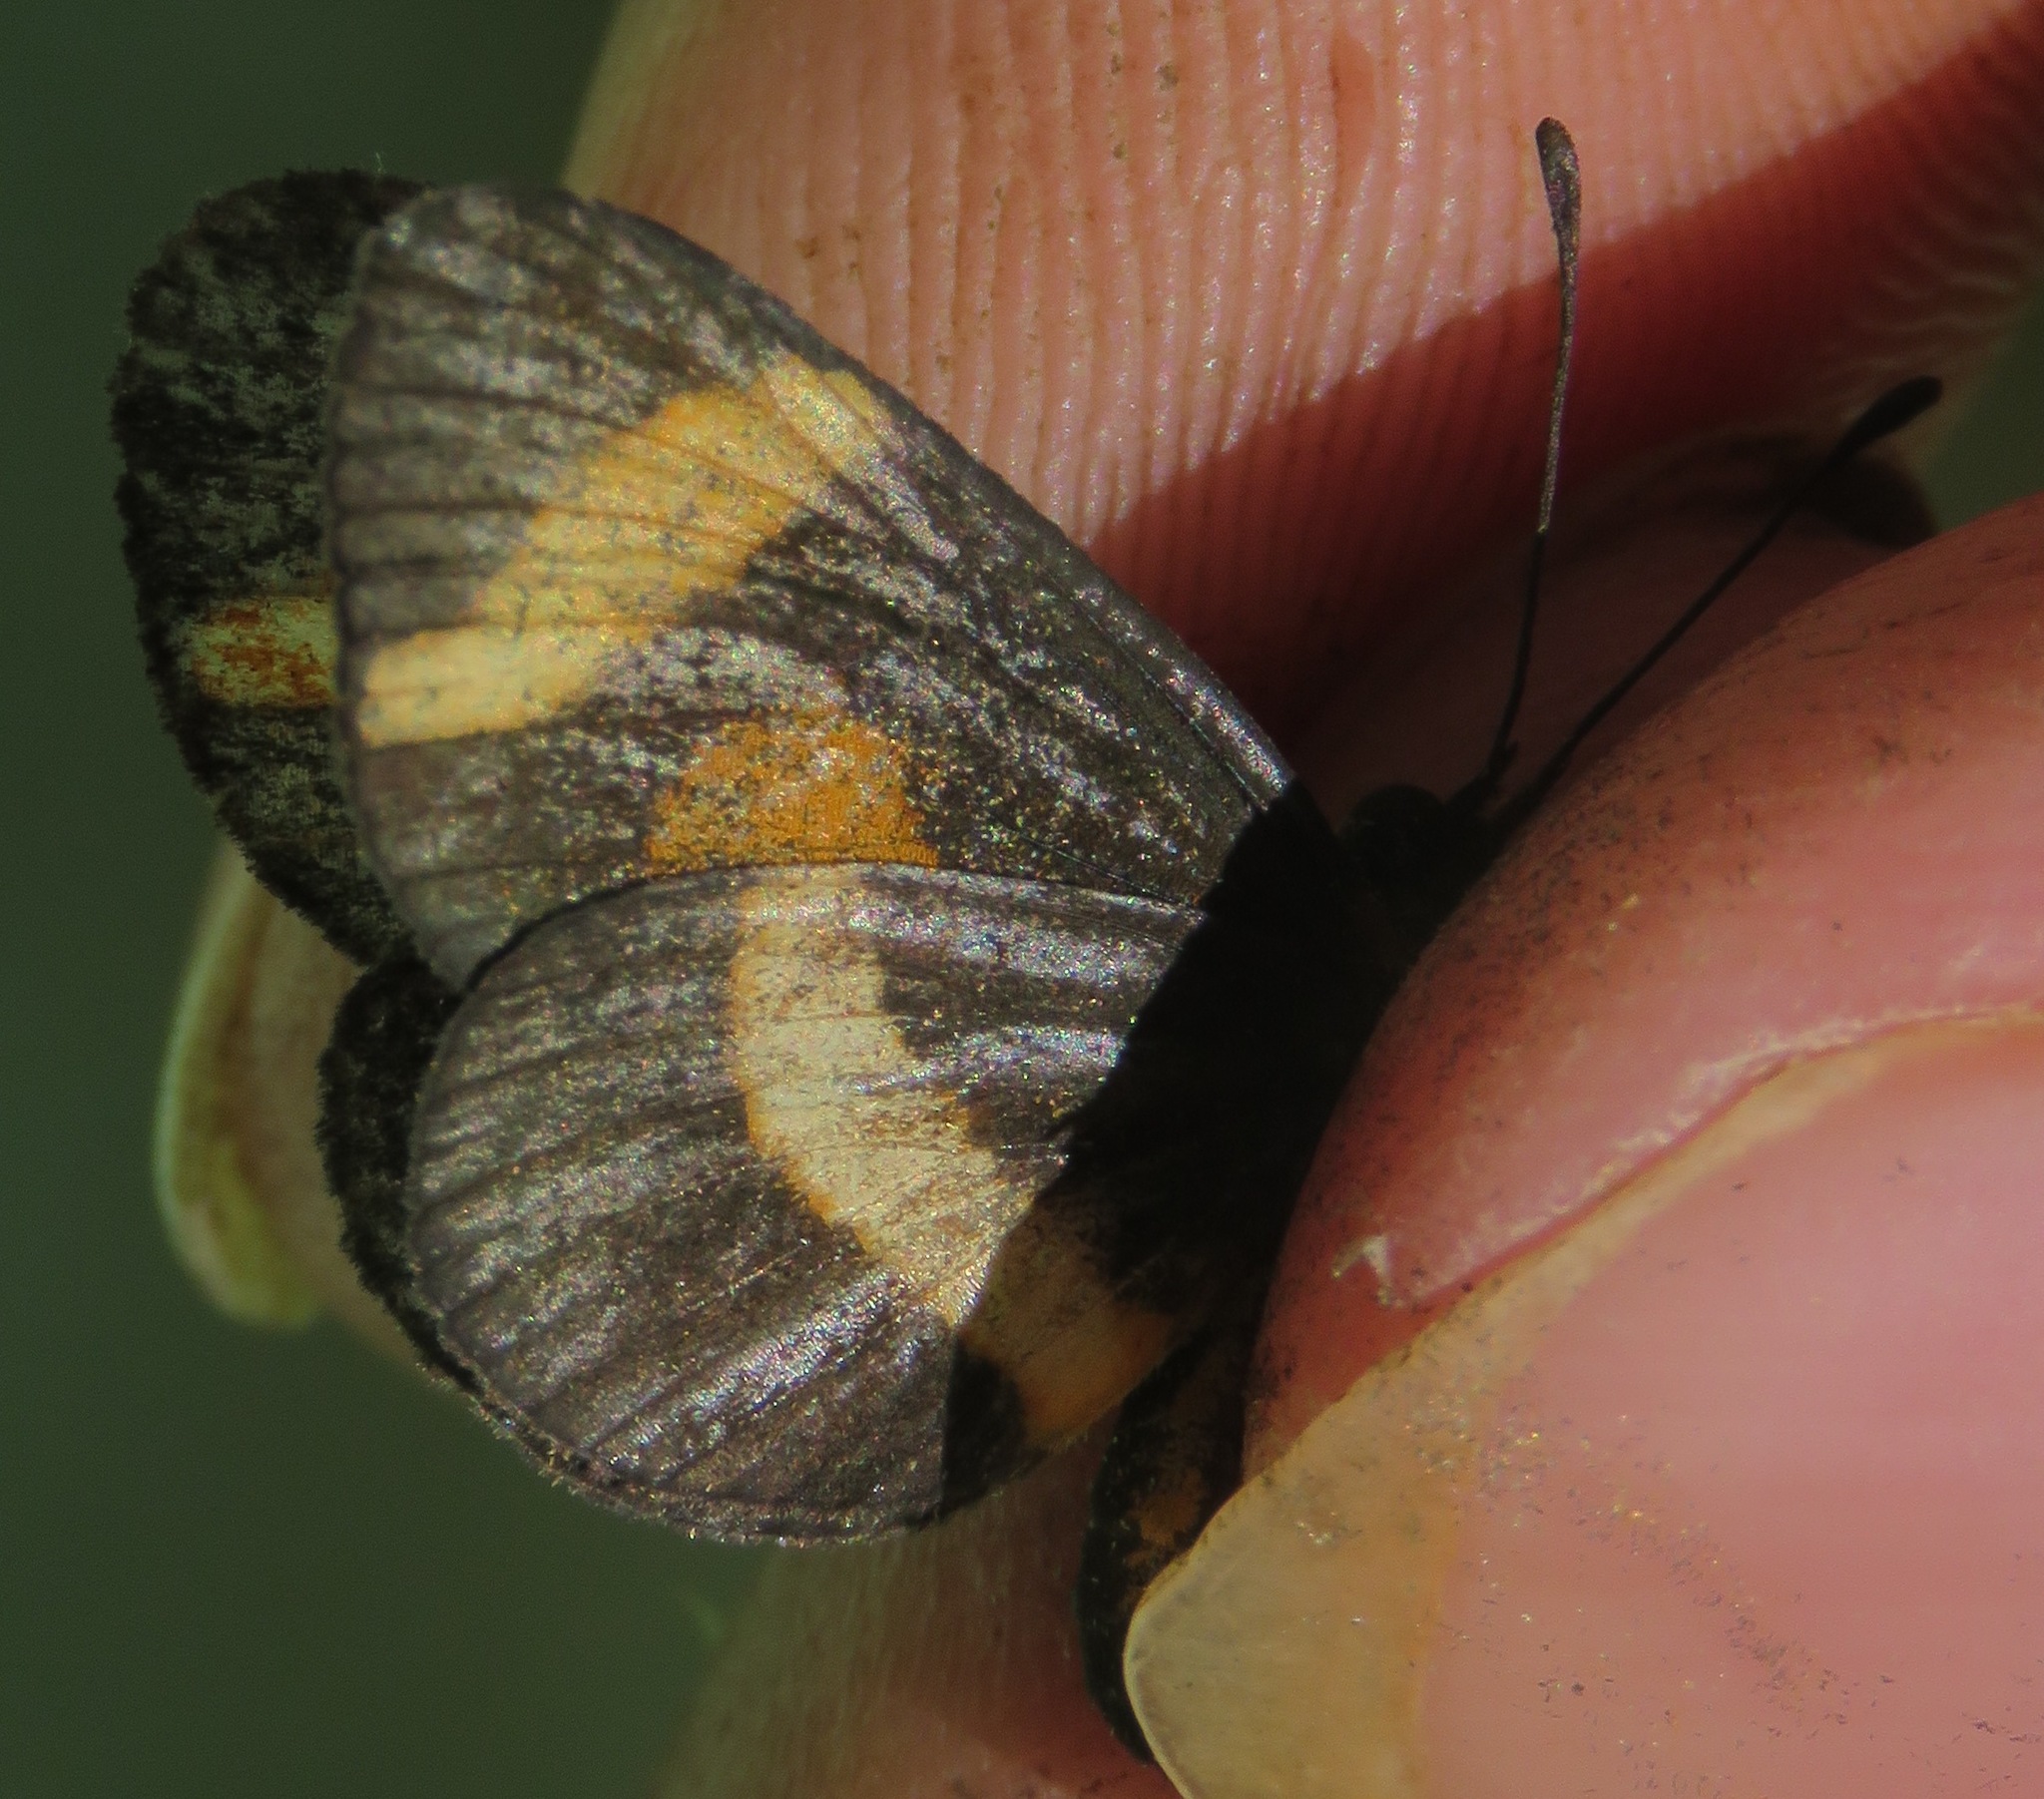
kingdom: Animalia
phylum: Arthropoda
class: Insecta
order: Lepidoptera
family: Nymphalidae
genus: Microtia
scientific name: Microtia elva
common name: Elf
